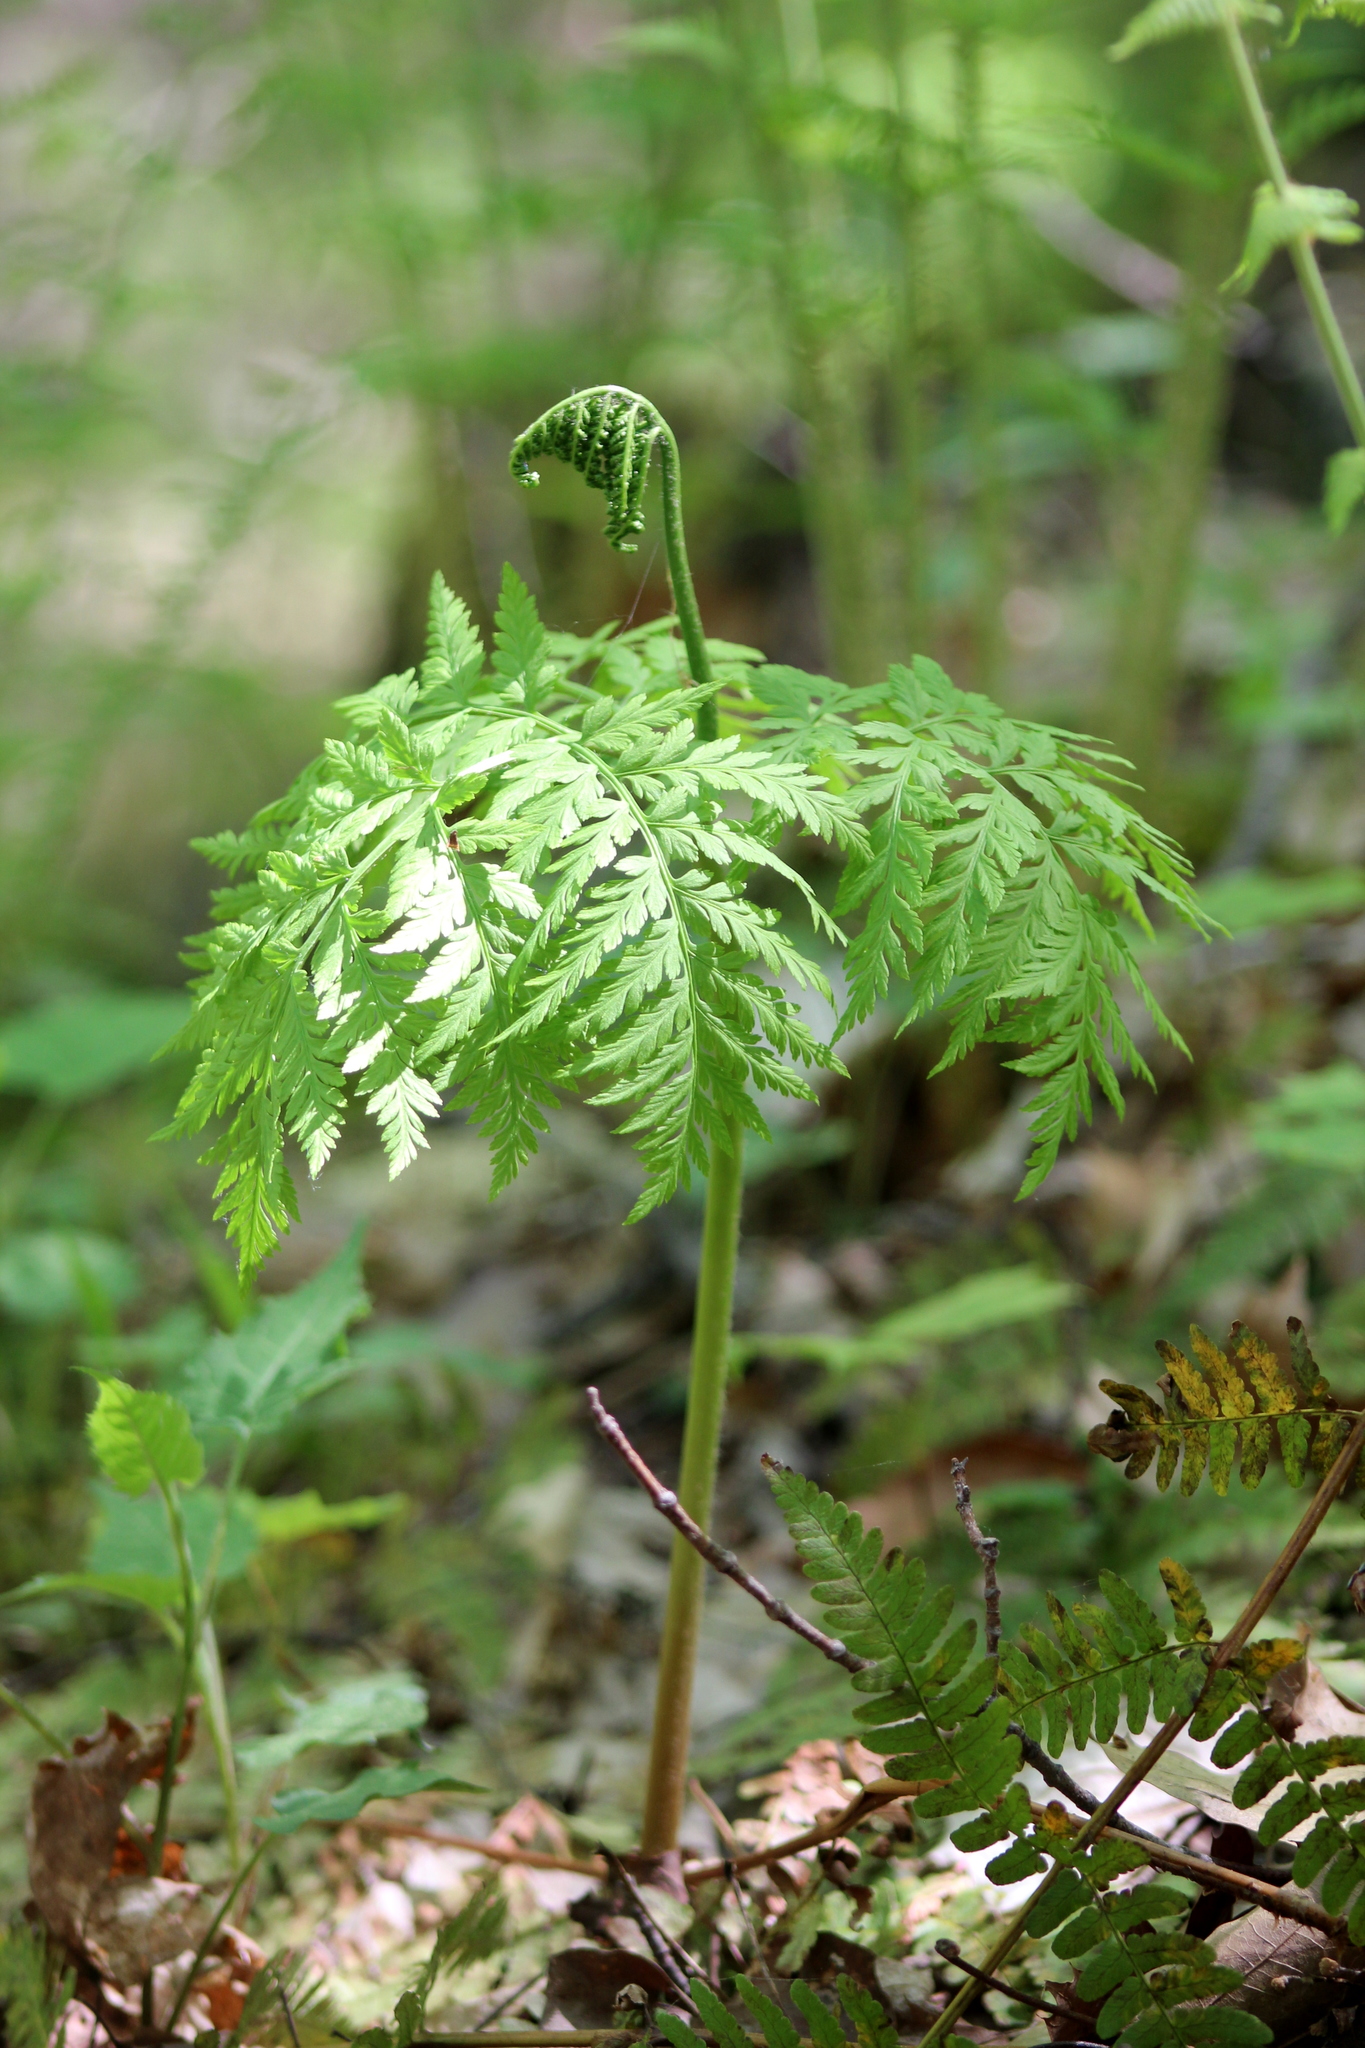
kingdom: Plantae
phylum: Tracheophyta
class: Polypodiopsida
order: Ophioglossales
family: Ophioglossaceae
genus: Botrypus
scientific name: Botrypus virginianus
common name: Common grapefern
